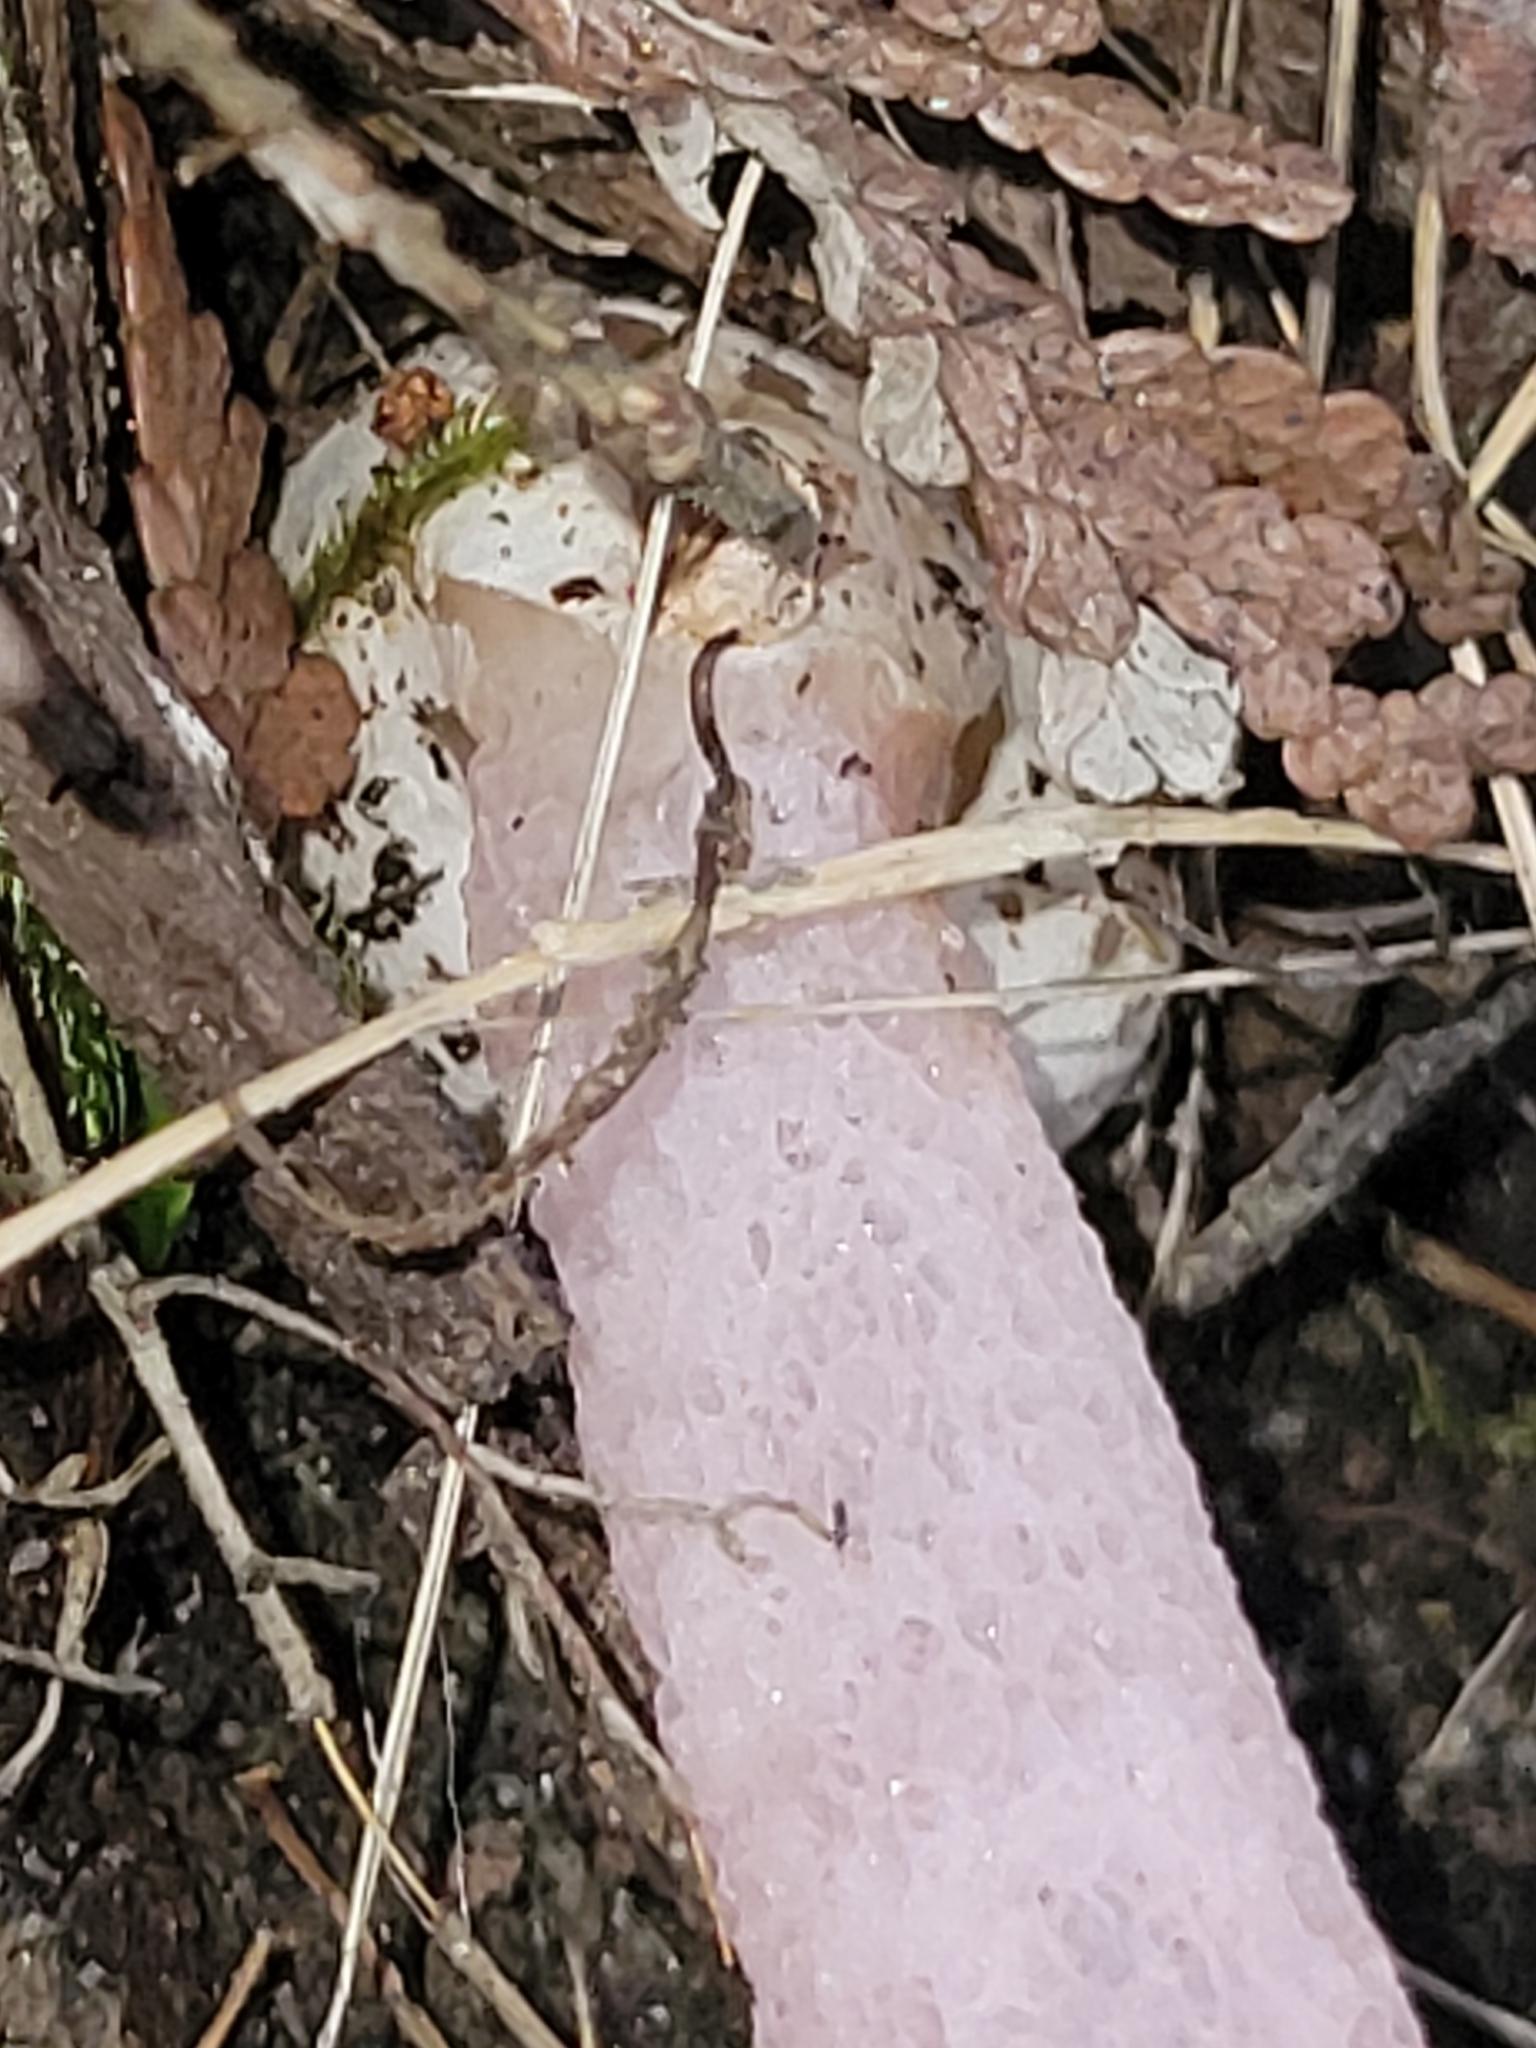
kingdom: Fungi
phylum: Basidiomycota
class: Agaricomycetes
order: Phallales
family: Phallaceae
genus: Mutinus
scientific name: Mutinus ravenelii
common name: Red stinkhorn
